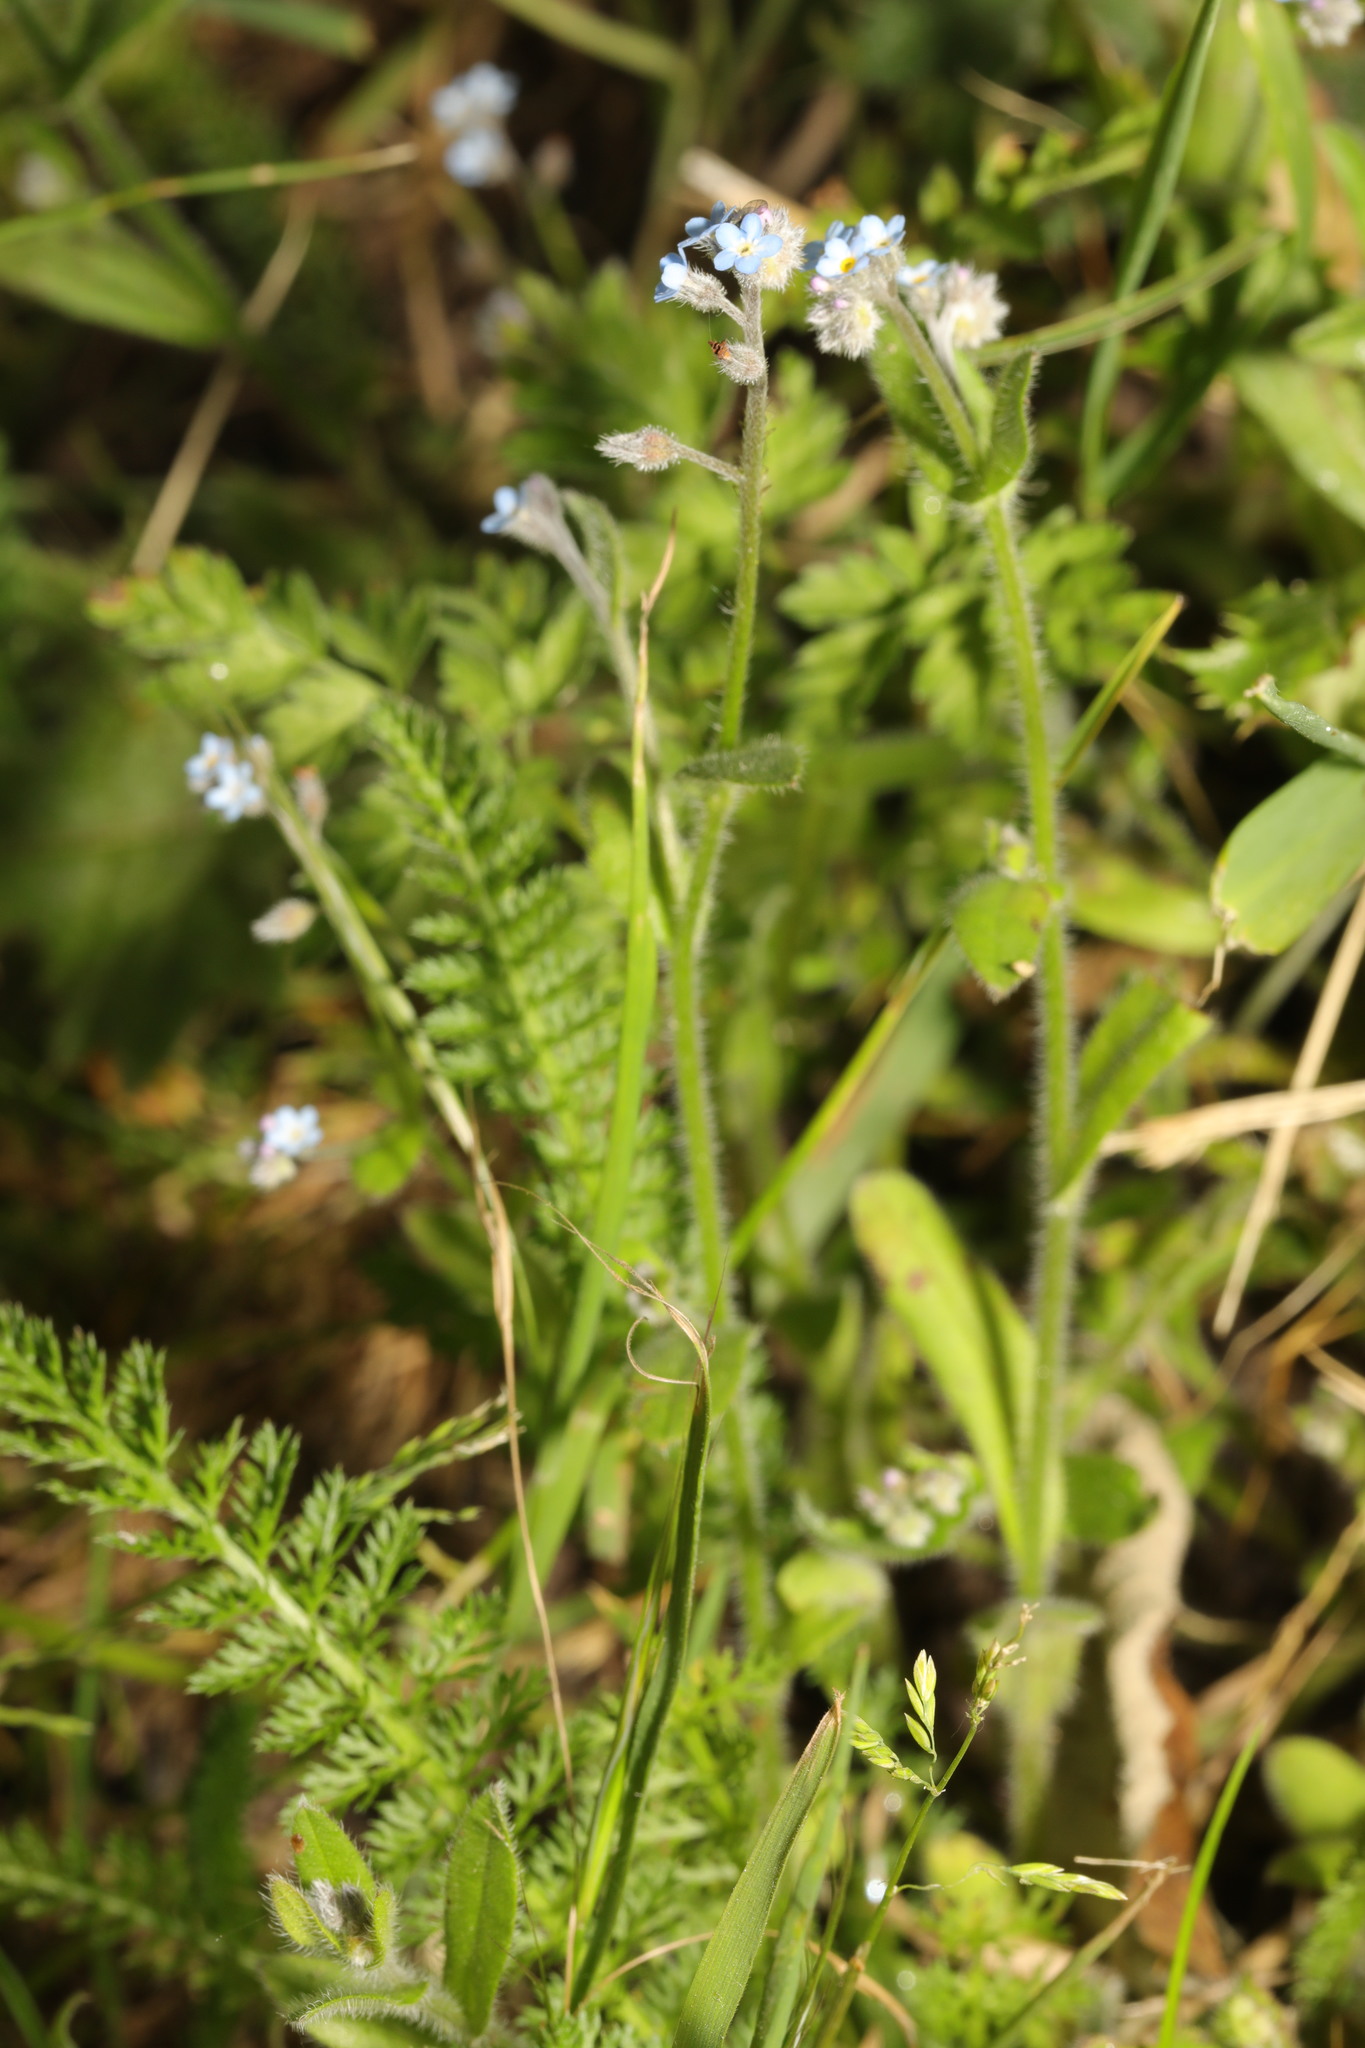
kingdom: Plantae
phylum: Tracheophyta
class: Magnoliopsida
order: Boraginales
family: Boraginaceae
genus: Myosotis
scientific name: Myosotis arvensis
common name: Field forget-me-not
